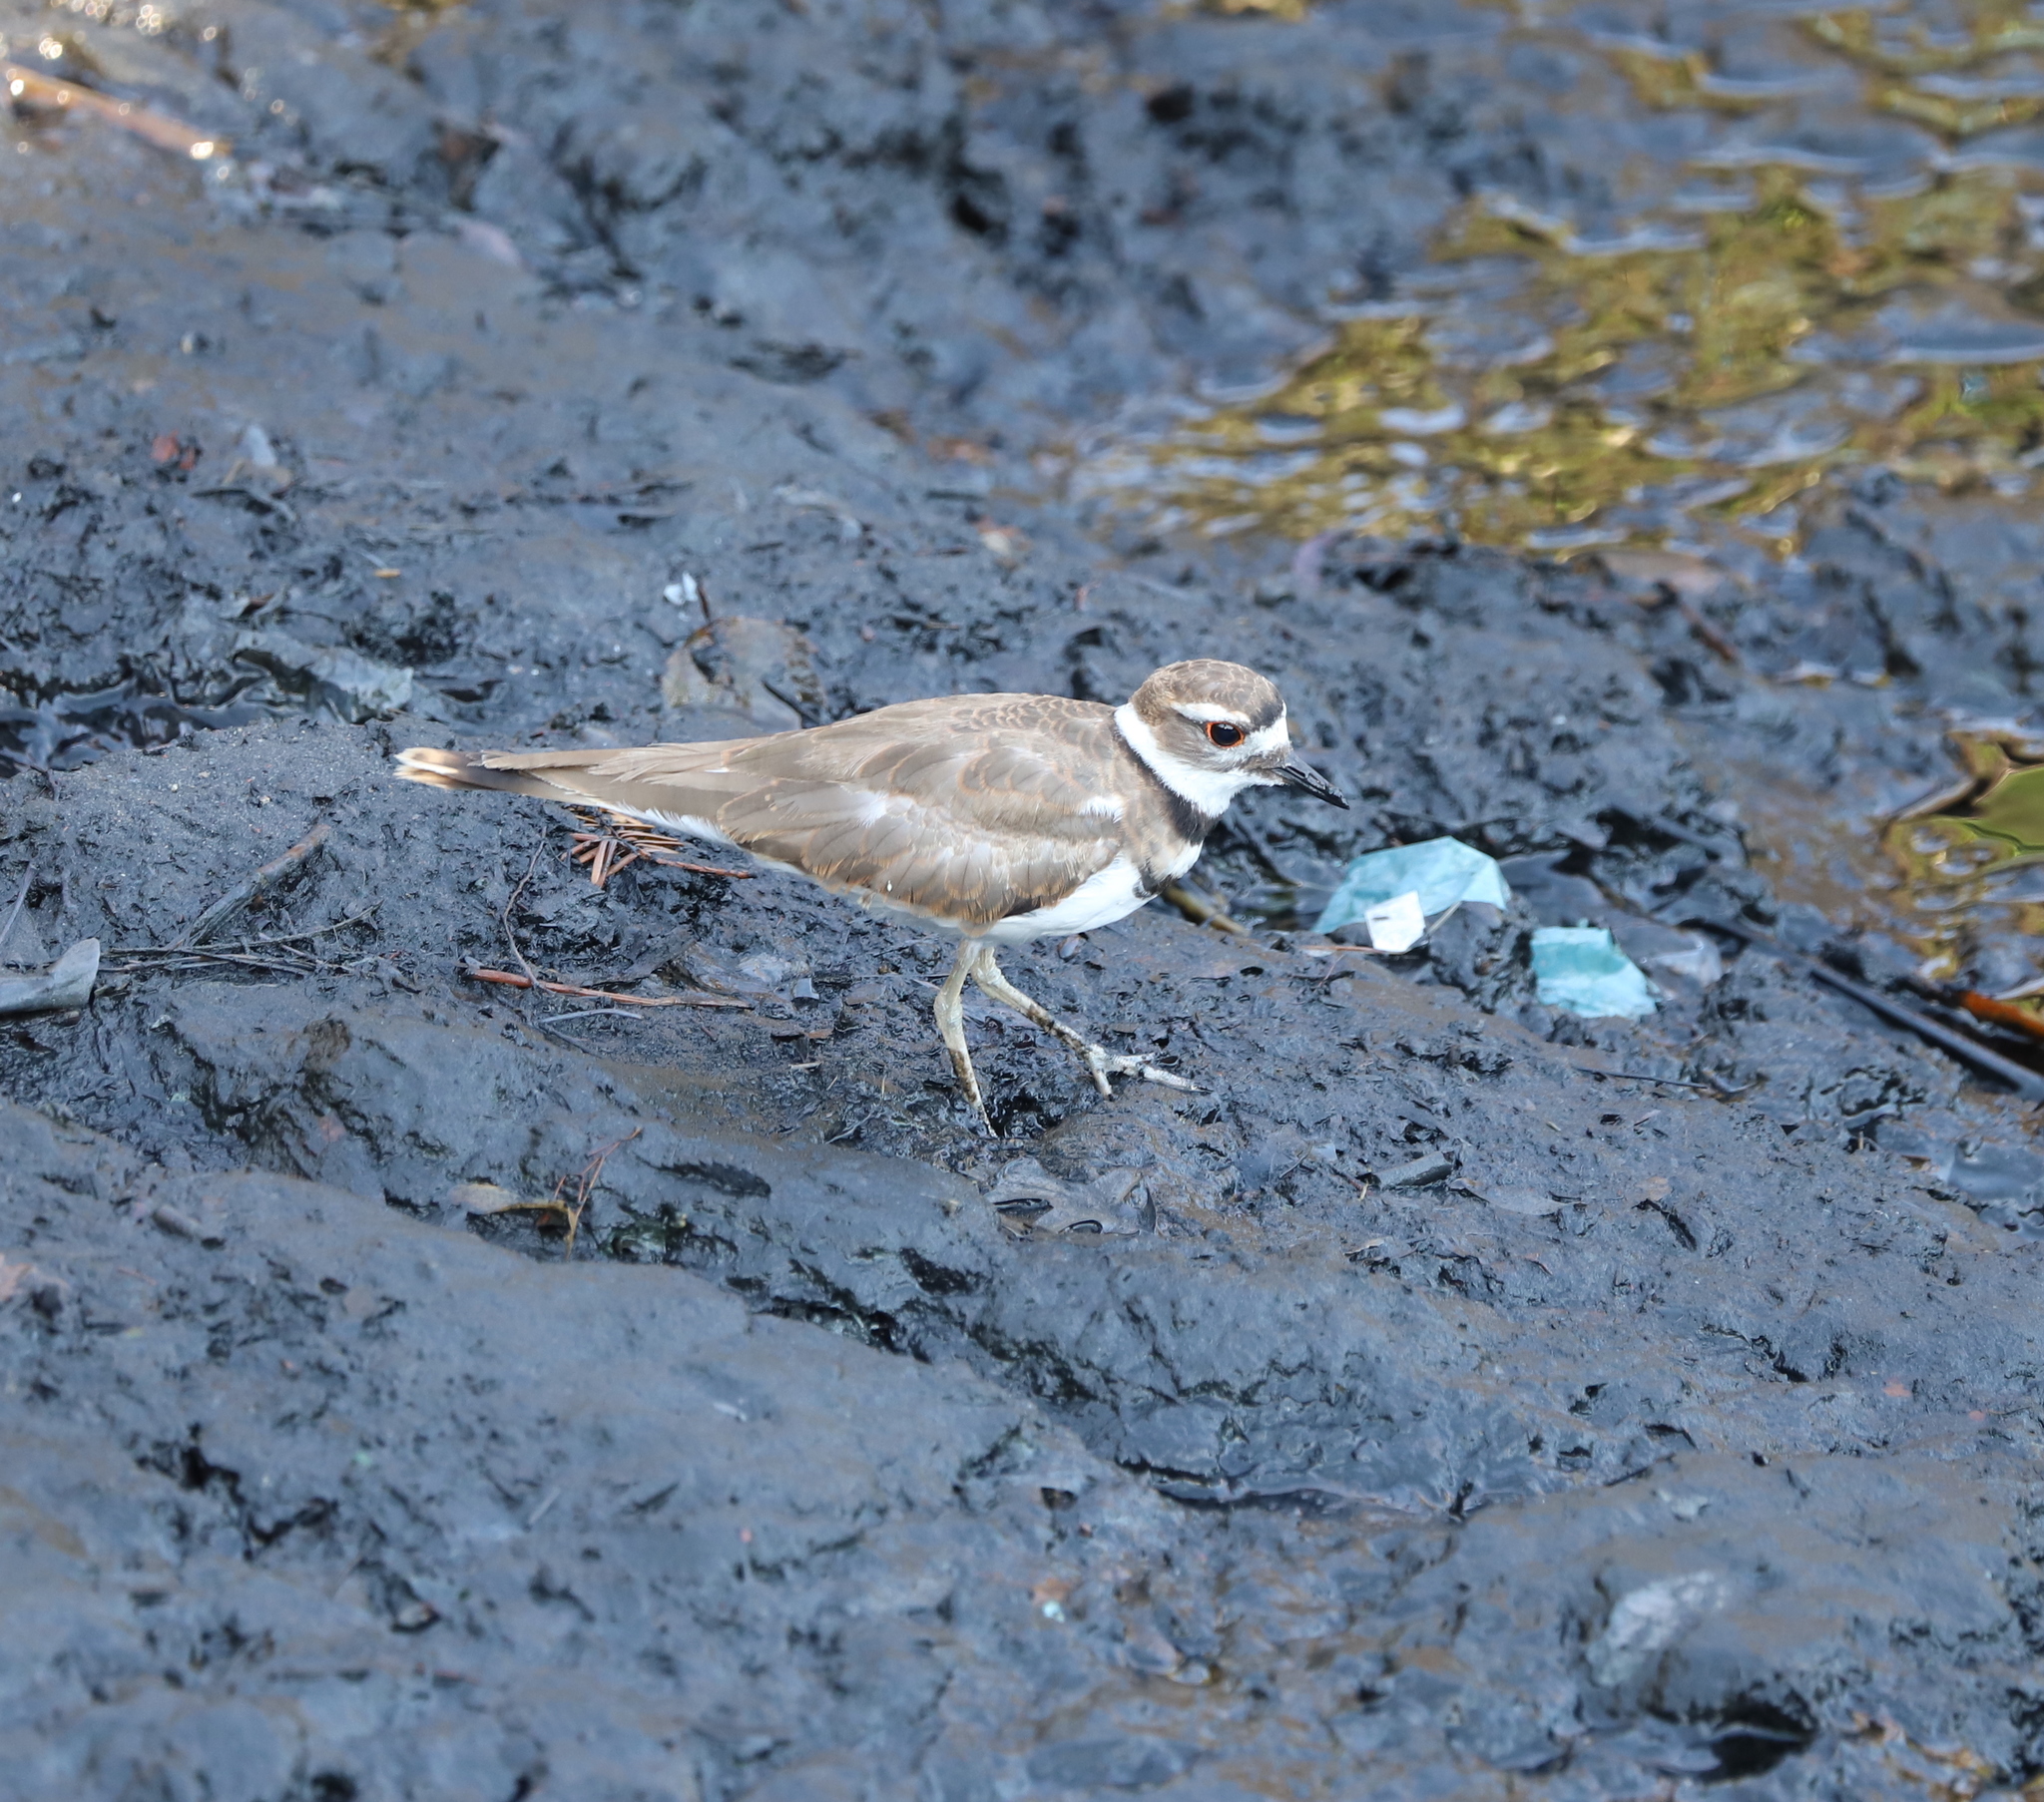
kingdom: Animalia
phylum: Chordata
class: Aves
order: Charadriiformes
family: Charadriidae
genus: Charadrius
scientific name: Charadrius vociferus
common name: Killdeer
